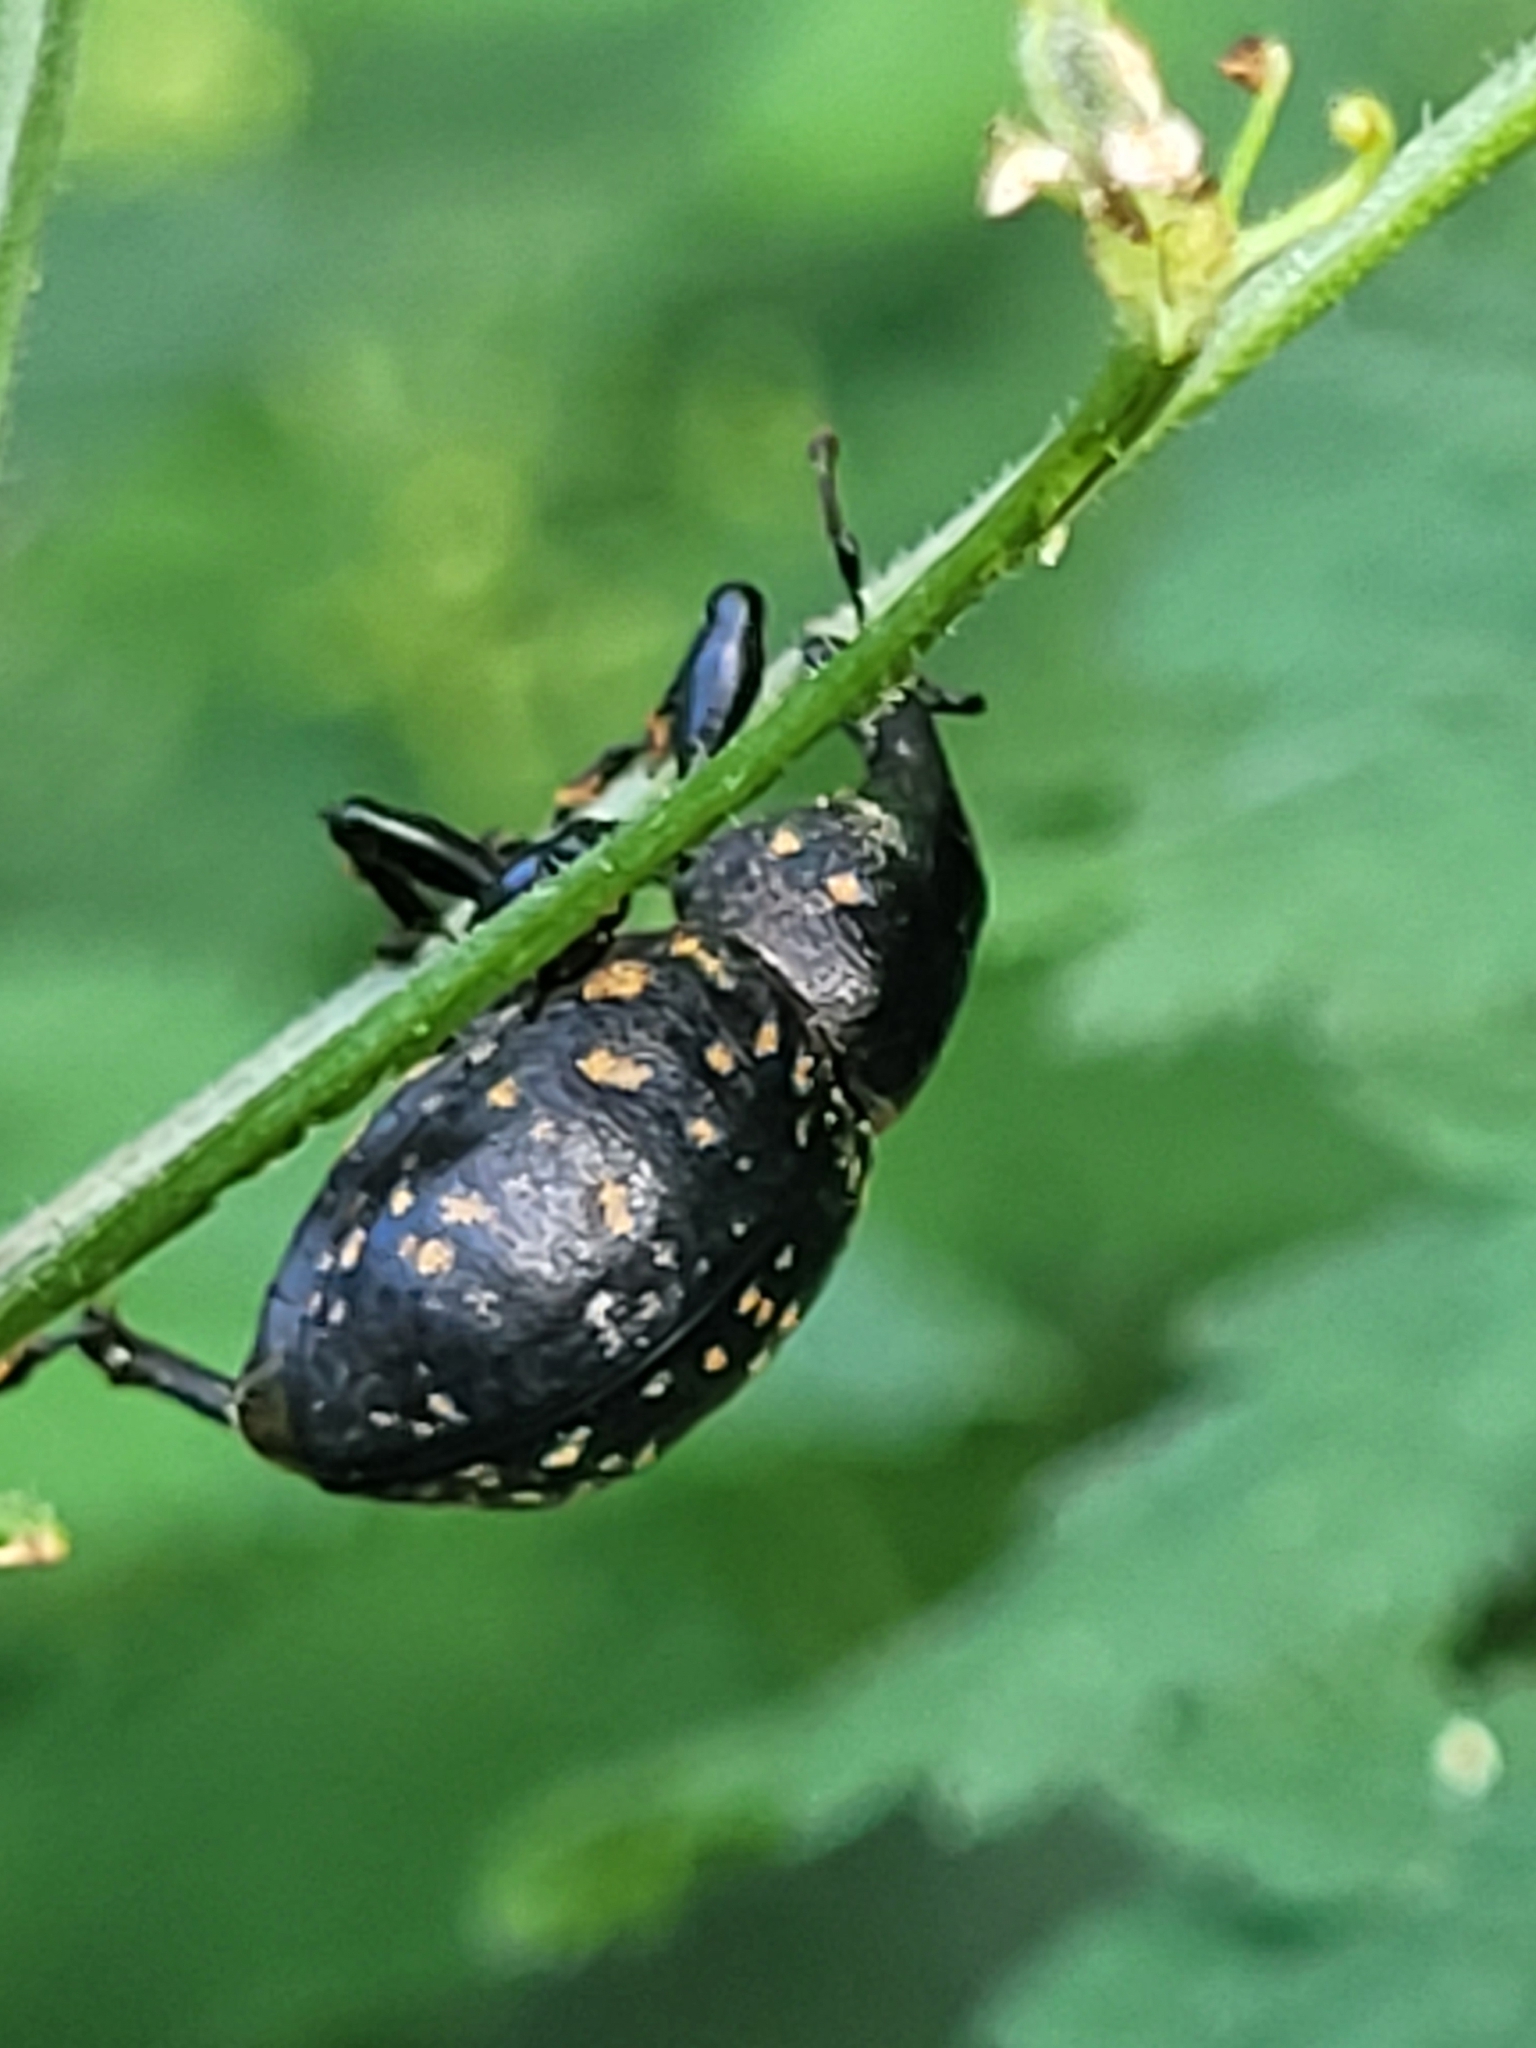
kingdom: Animalia
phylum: Arthropoda
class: Insecta
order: Coleoptera
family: Curculionidae
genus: Liparus
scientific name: Liparus germanus
